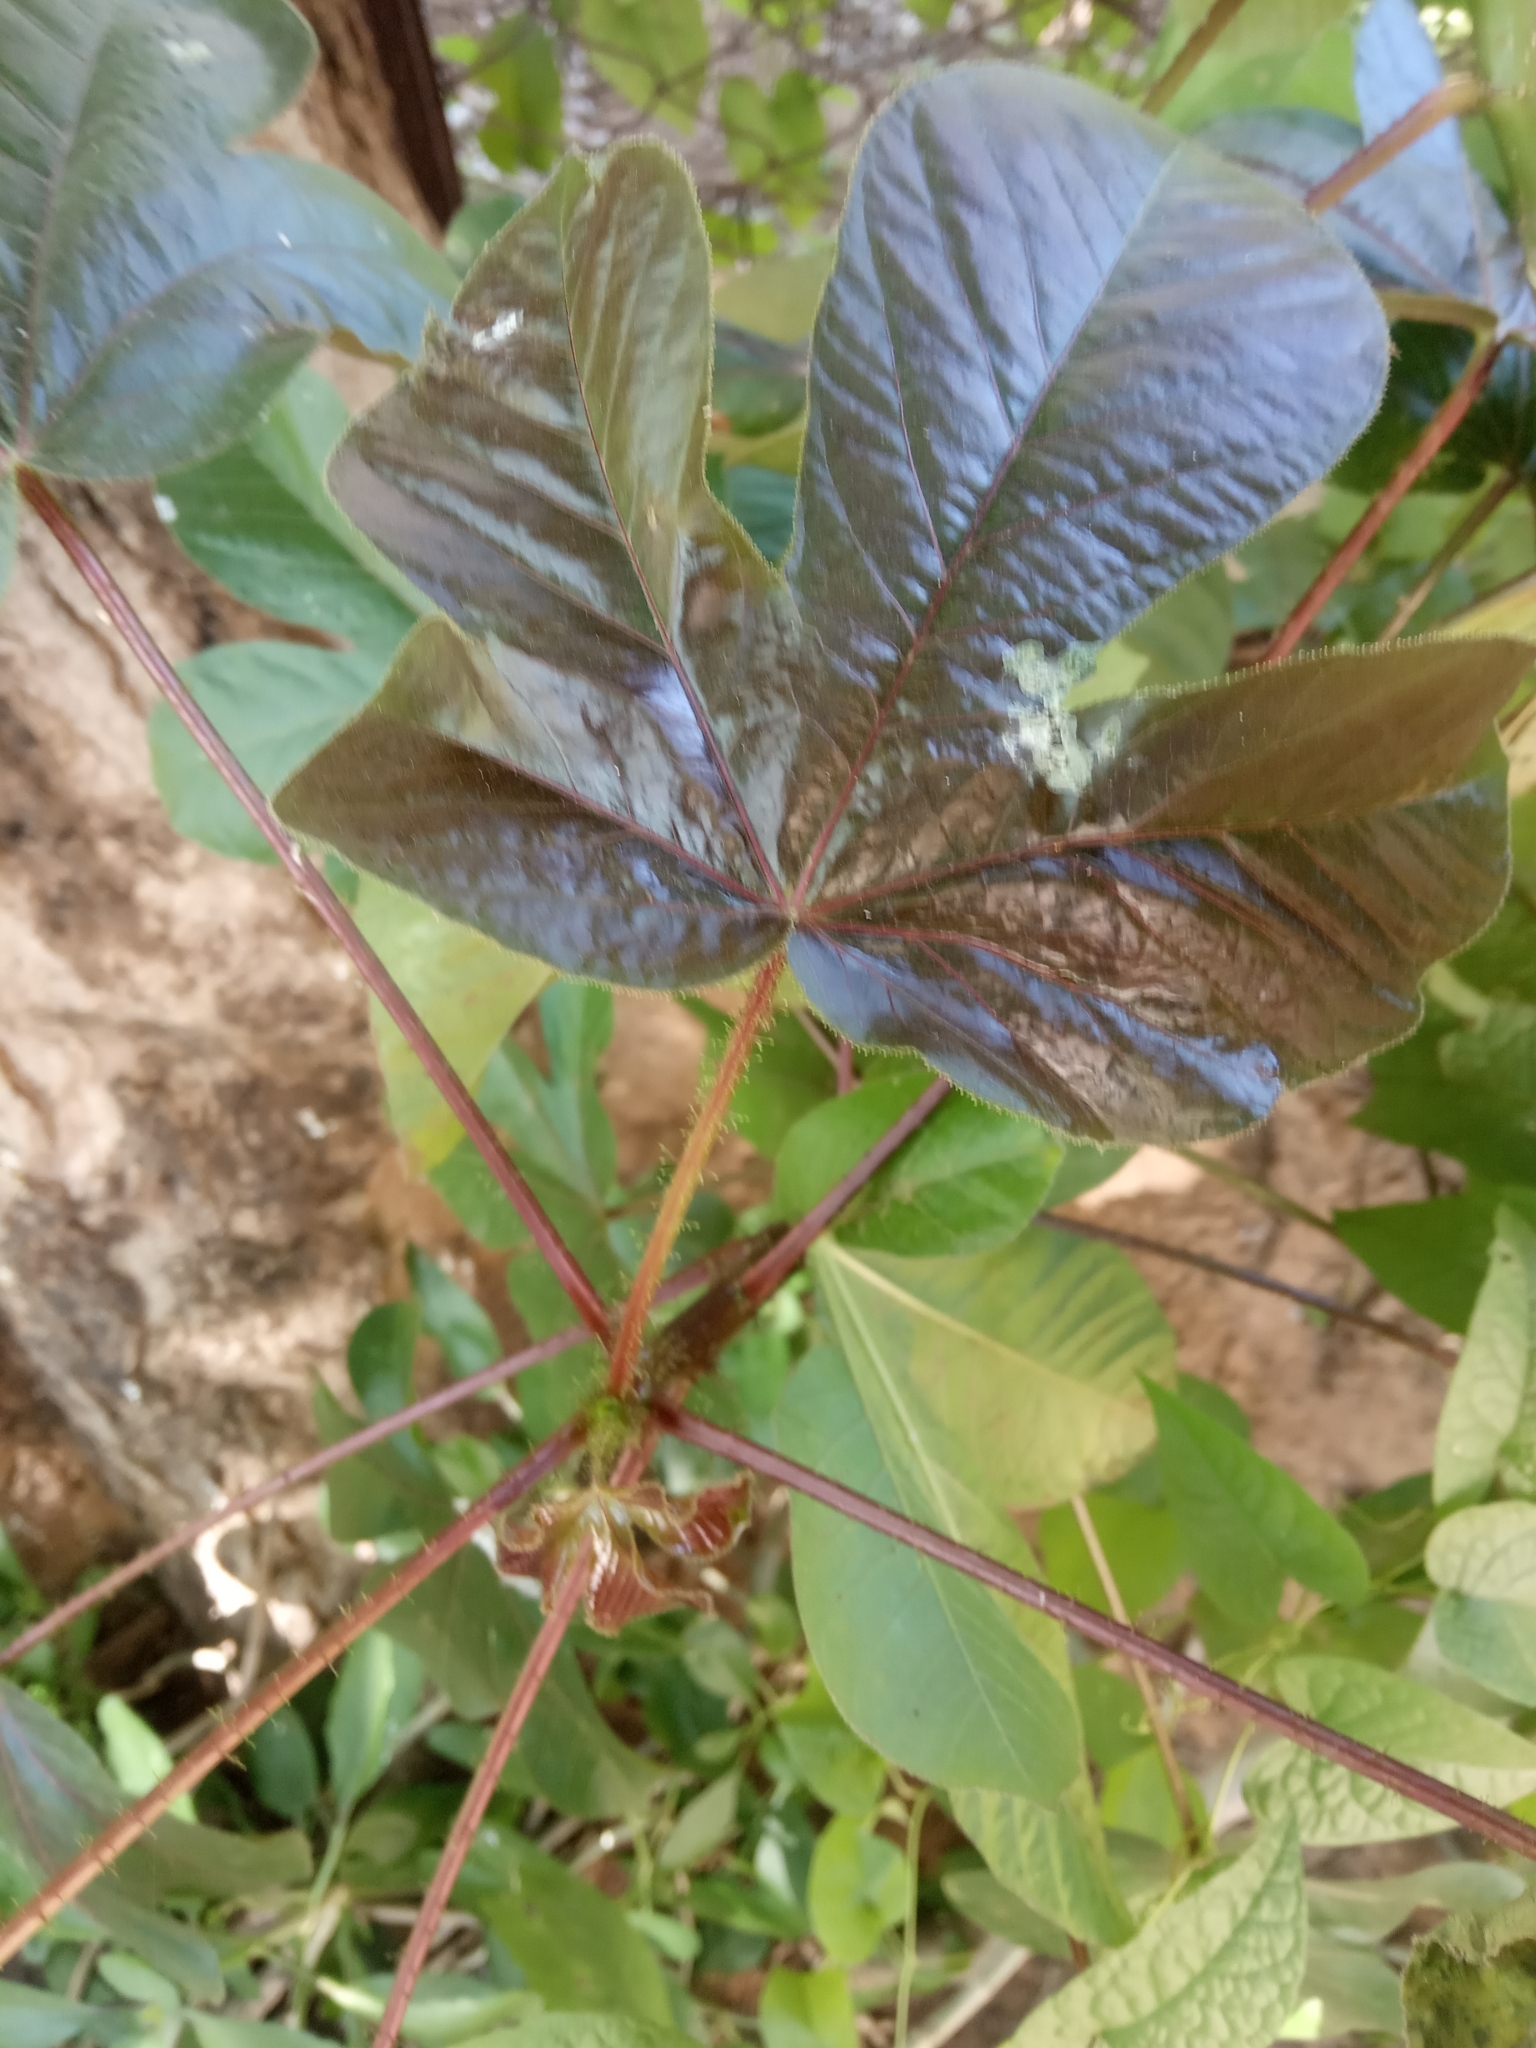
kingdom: Plantae
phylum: Tracheophyta
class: Magnoliopsida
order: Malpighiales
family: Euphorbiaceae
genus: Jatropha
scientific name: Jatropha gossypiifolia
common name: Bellyache bush
